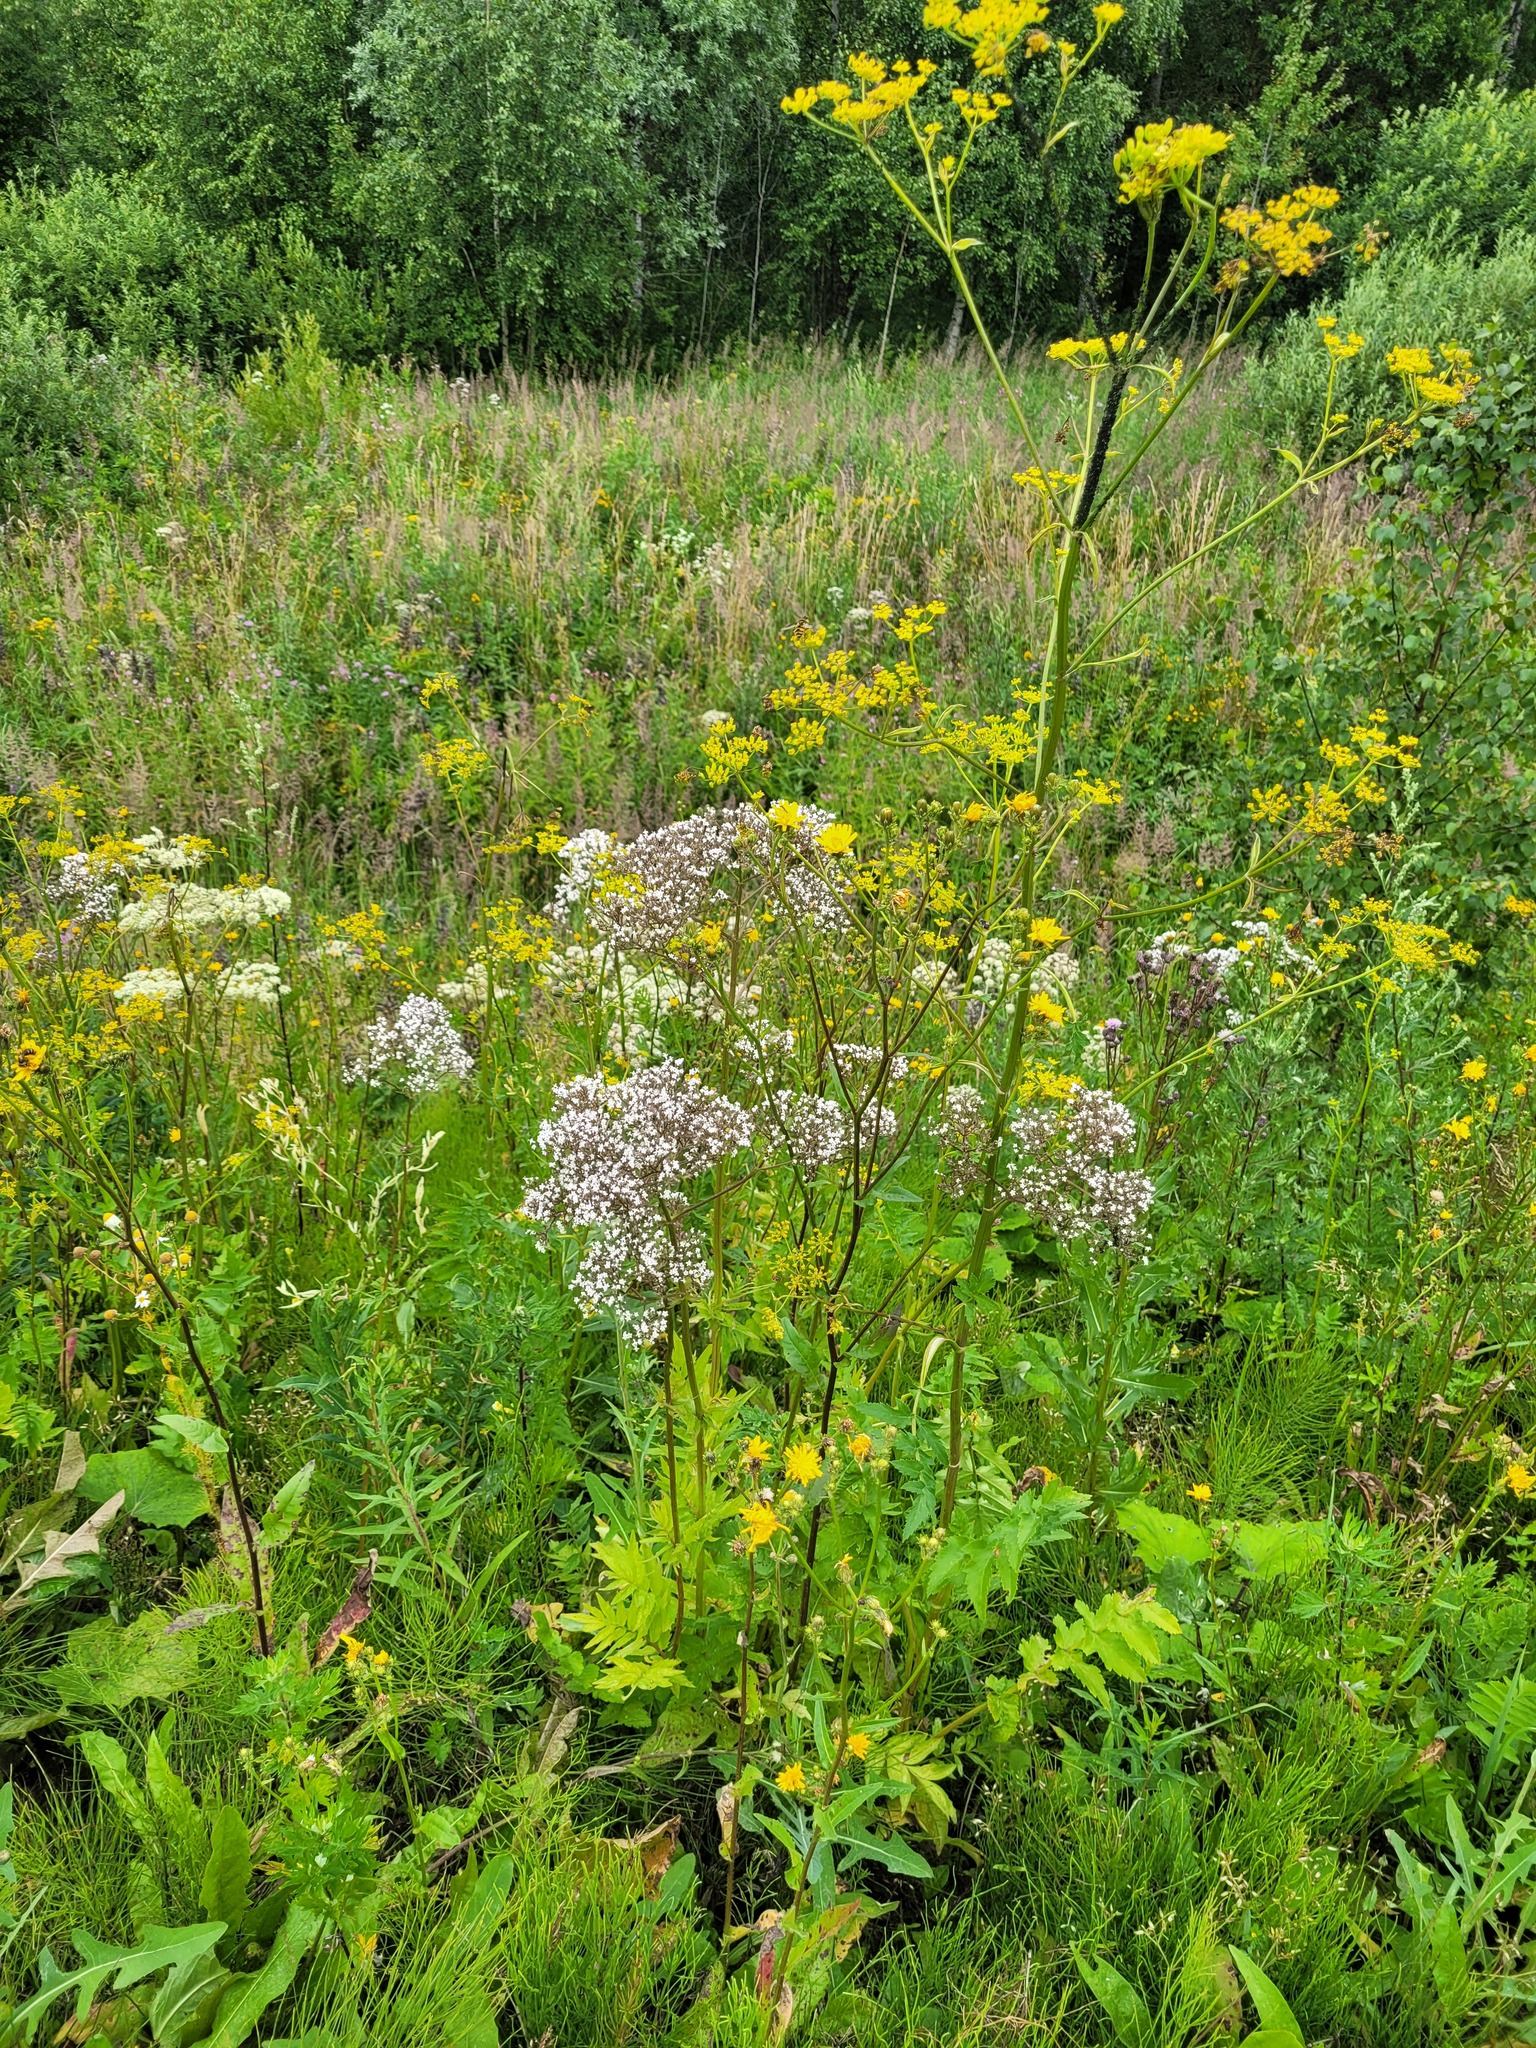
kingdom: Plantae
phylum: Tracheophyta
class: Magnoliopsida
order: Dipsacales
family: Caprifoliaceae
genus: Valeriana
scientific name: Valeriana officinalis
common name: Common valerian
